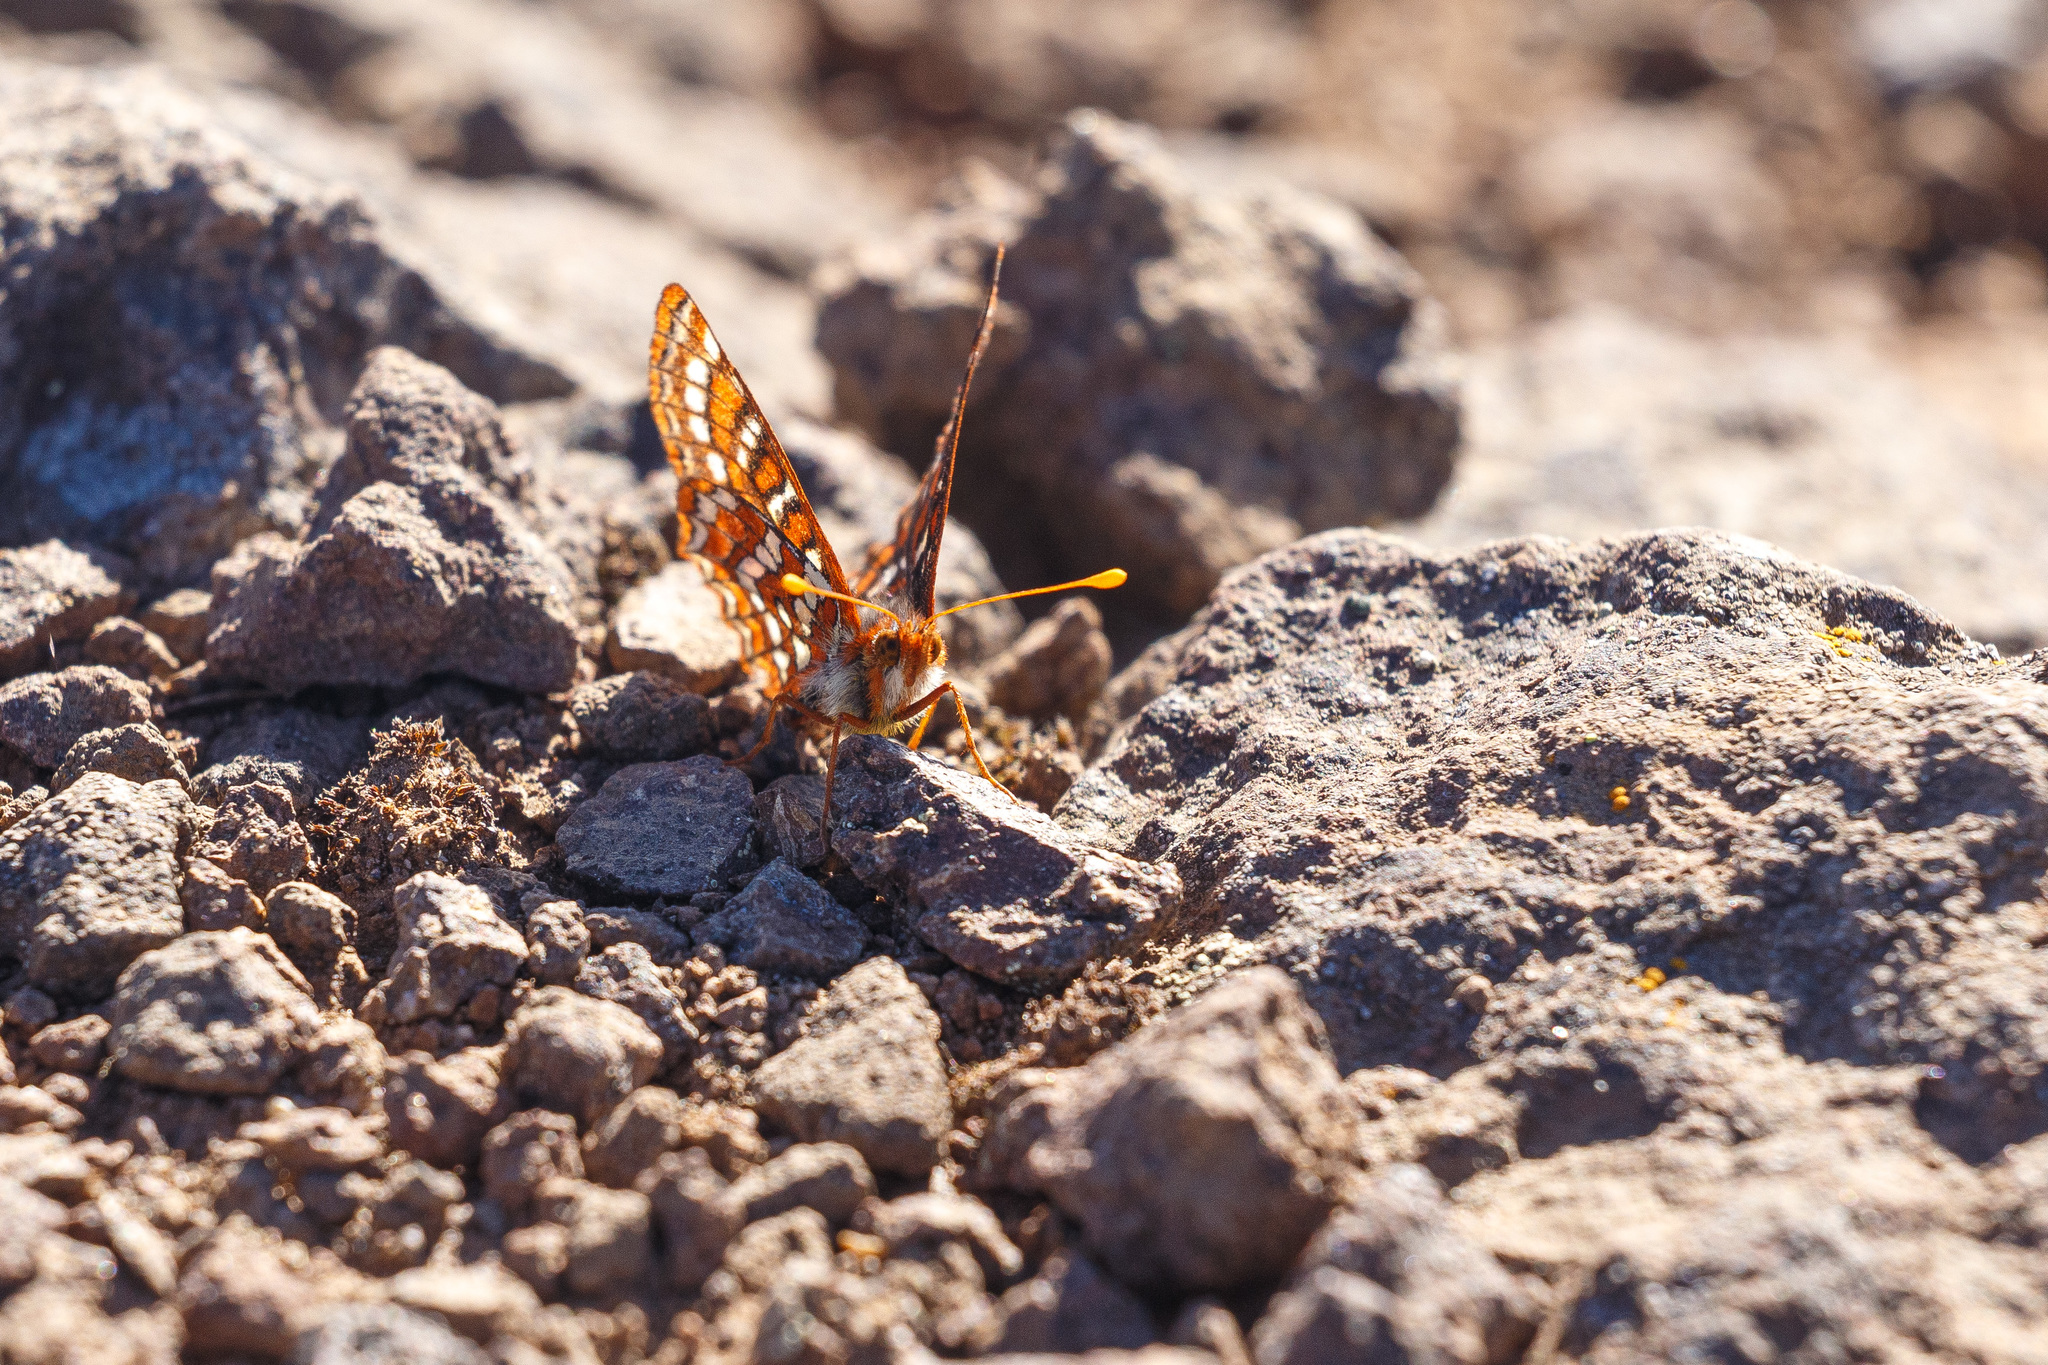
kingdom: Animalia
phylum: Arthropoda
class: Insecta
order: Lepidoptera
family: Nymphalidae
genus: Occidryas
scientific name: Occidryas editha
